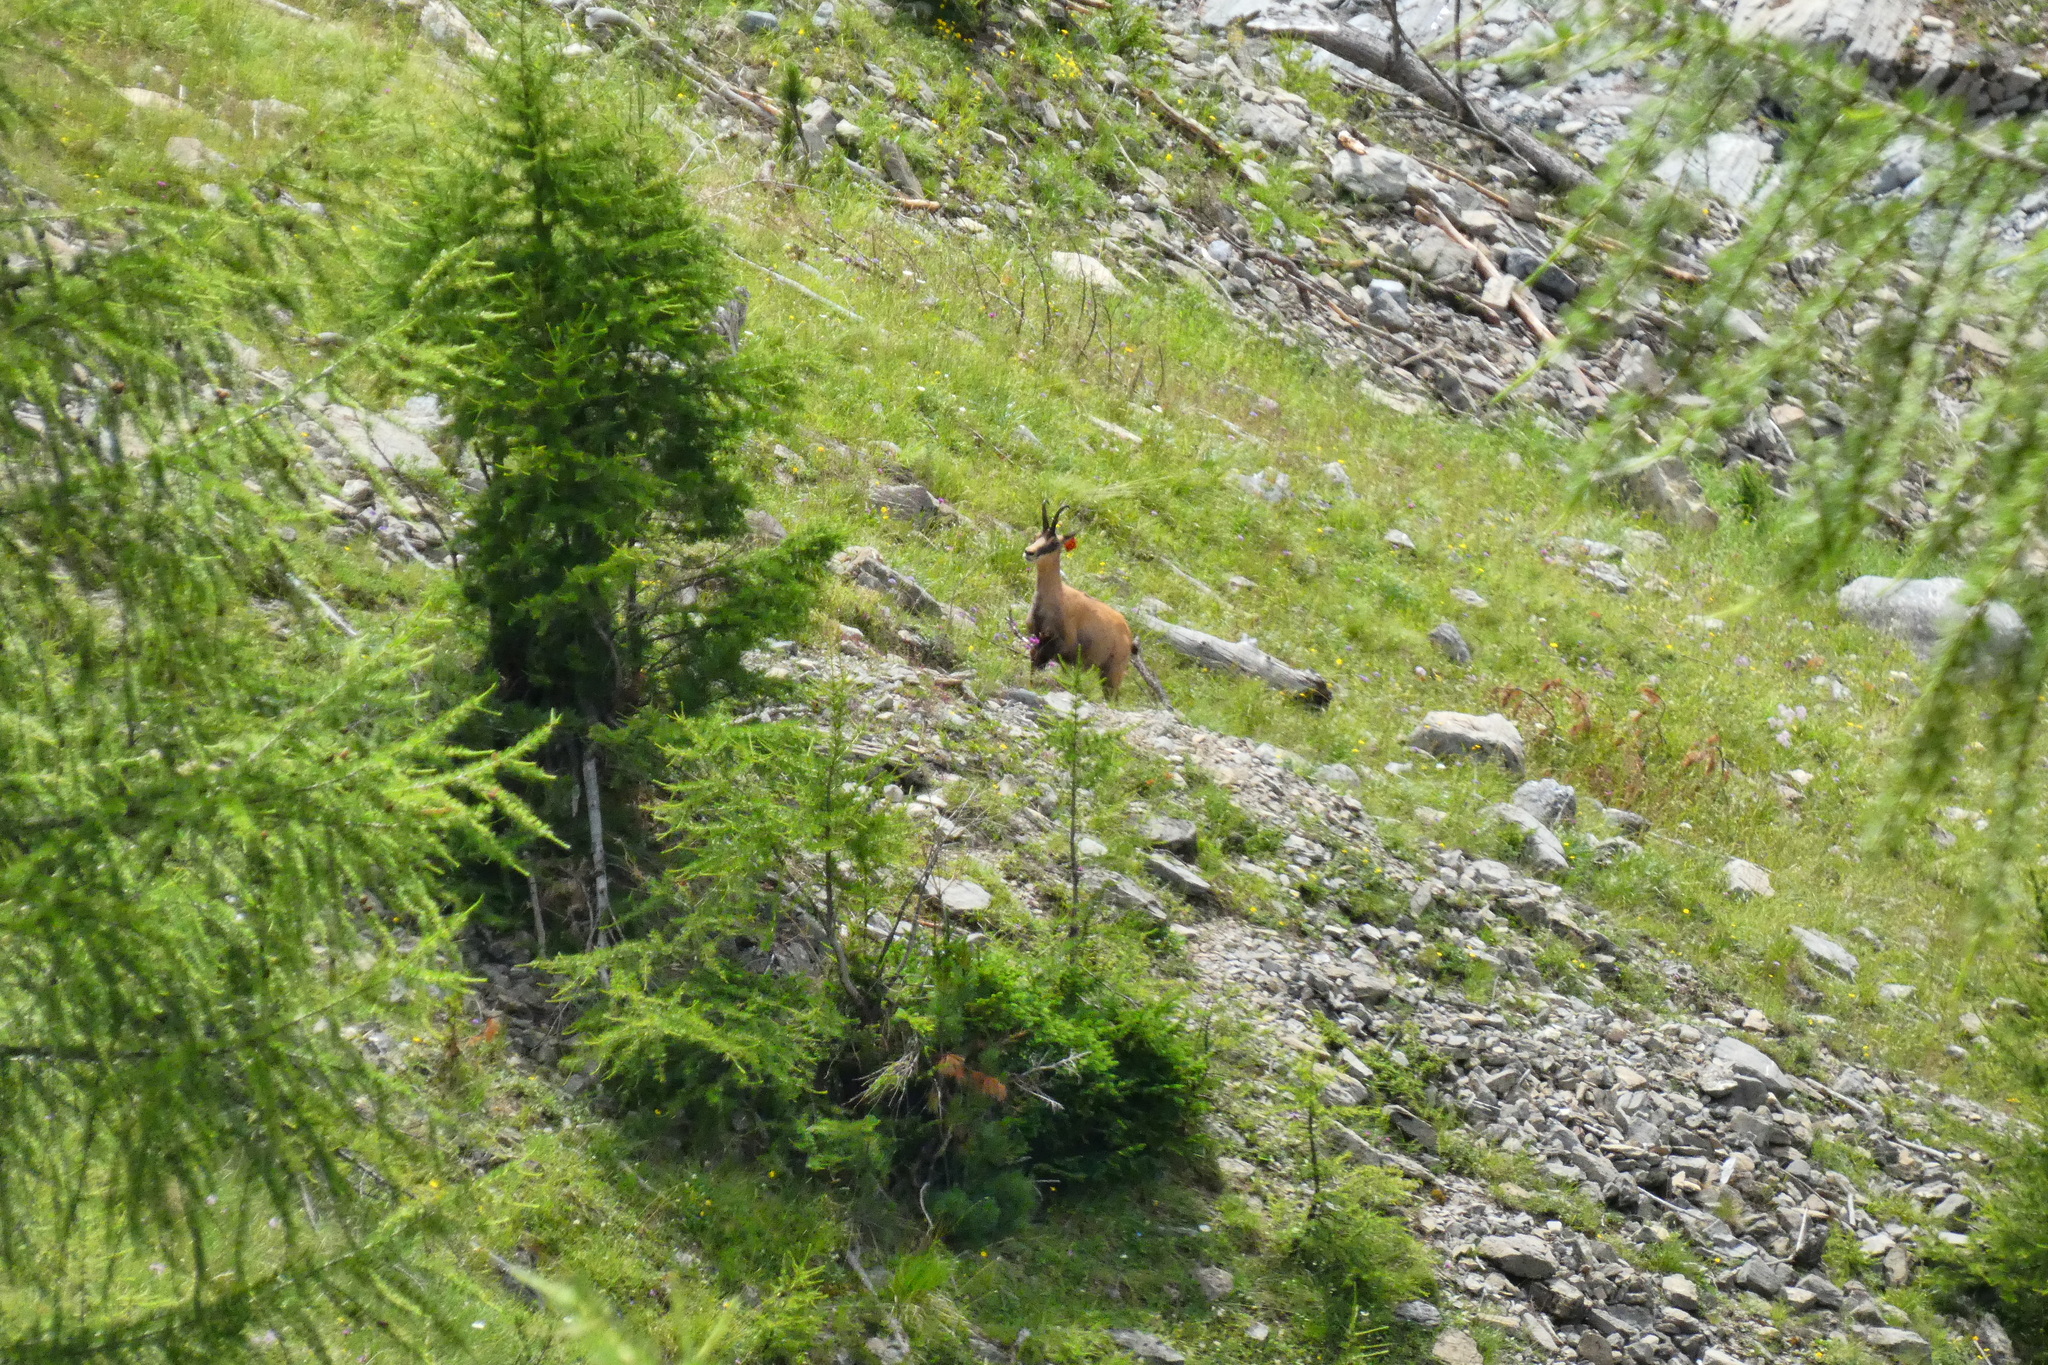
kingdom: Animalia
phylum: Chordata
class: Mammalia
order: Artiodactyla
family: Bovidae
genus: Rupicapra
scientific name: Rupicapra rupicapra
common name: Chamois
